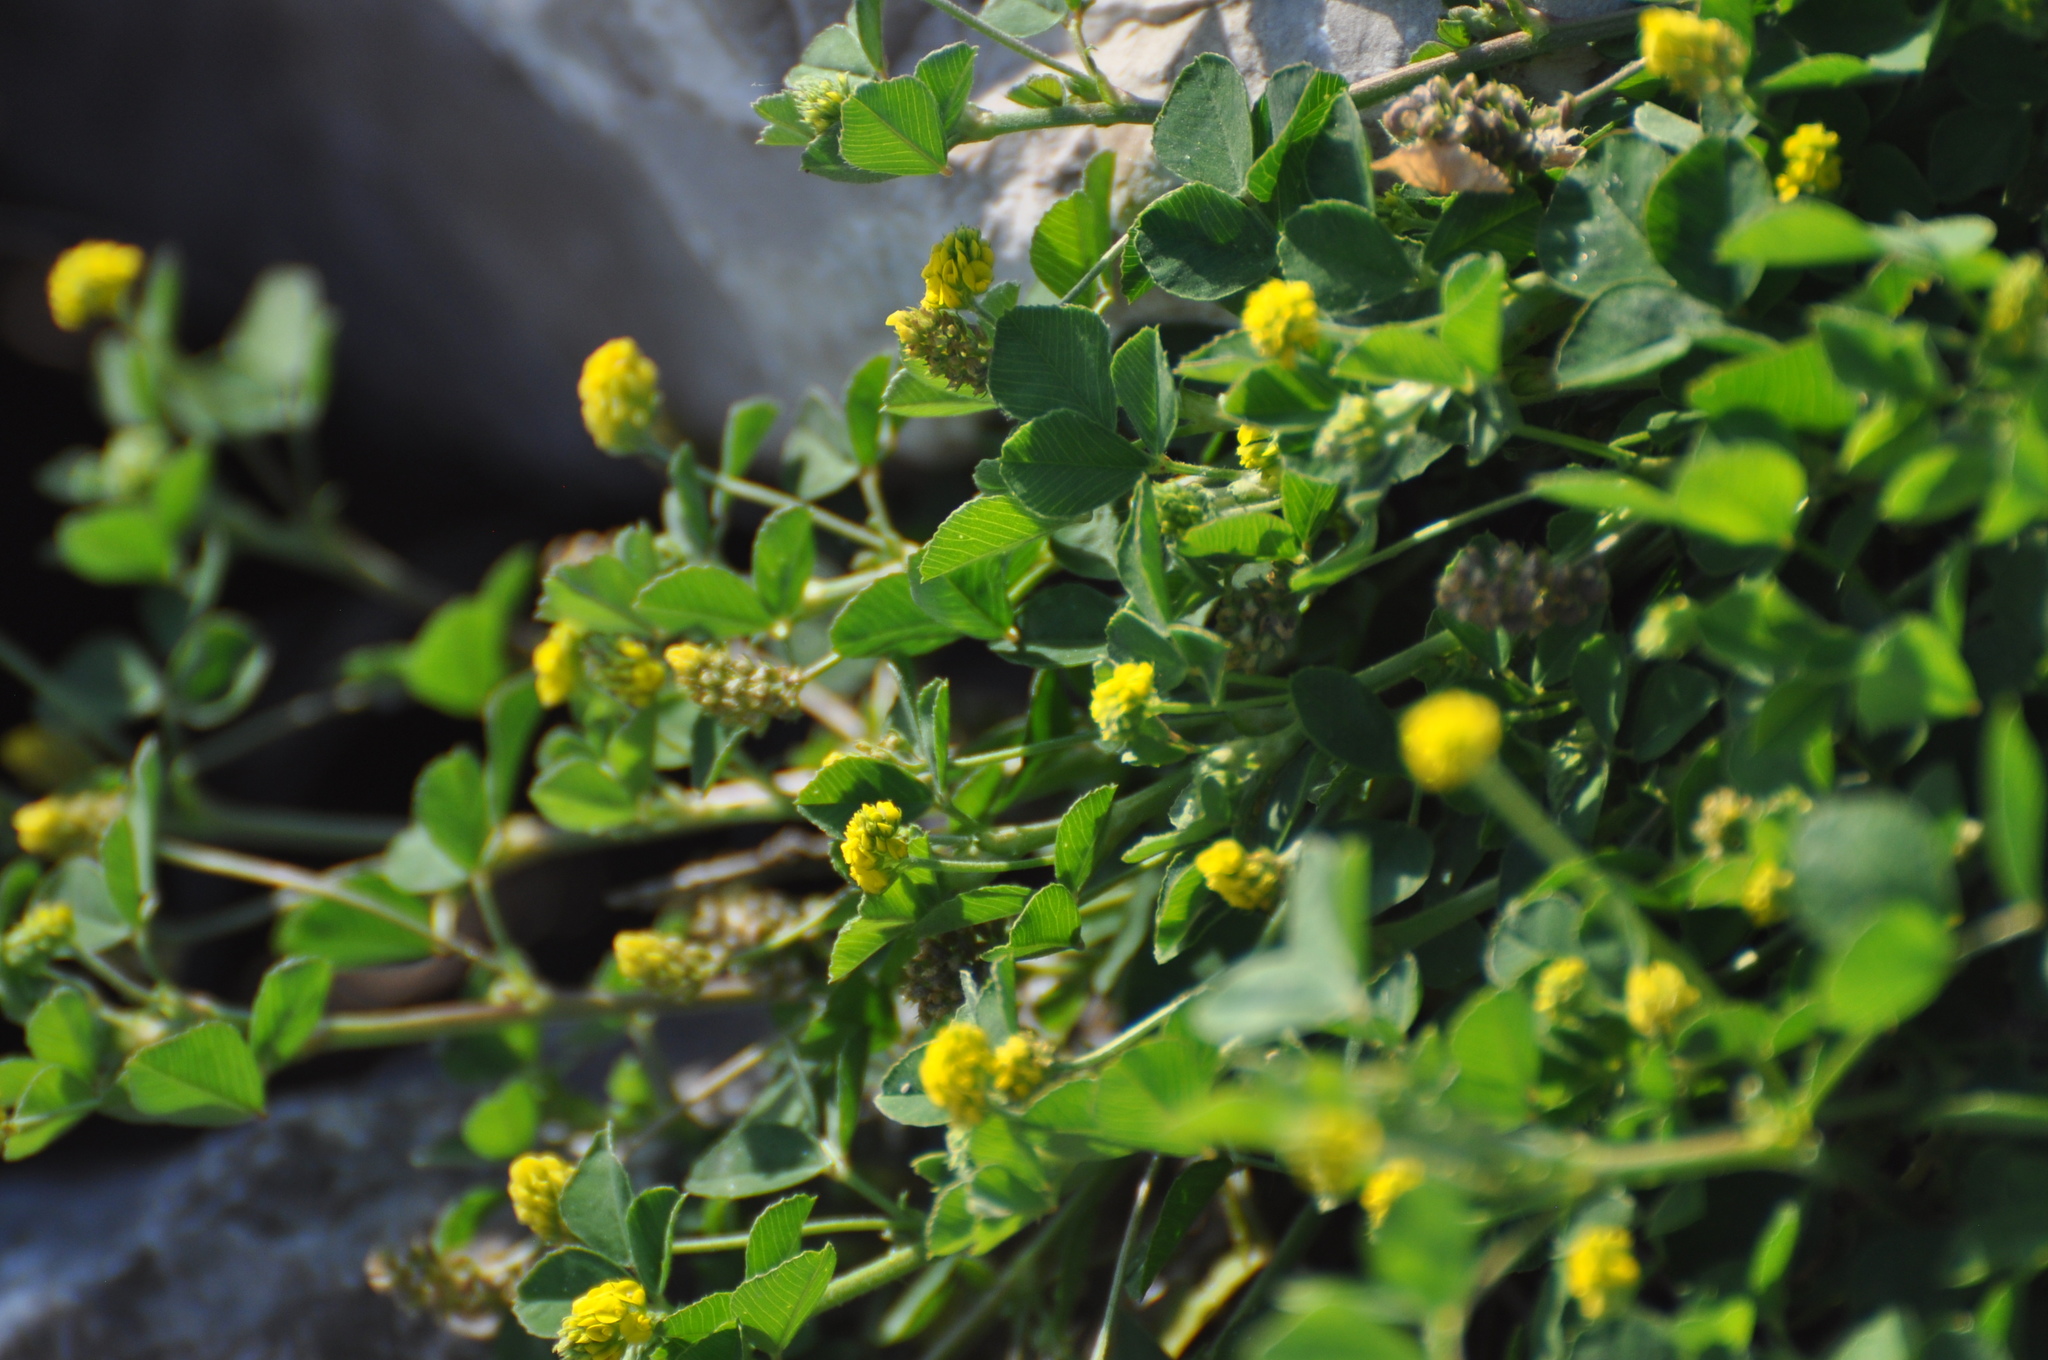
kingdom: Plantae
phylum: Tracheophyta
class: Magnoliopsida
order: Fabales
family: Fabaceae
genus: Medicago
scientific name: Medicago lupulina
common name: Black medick
